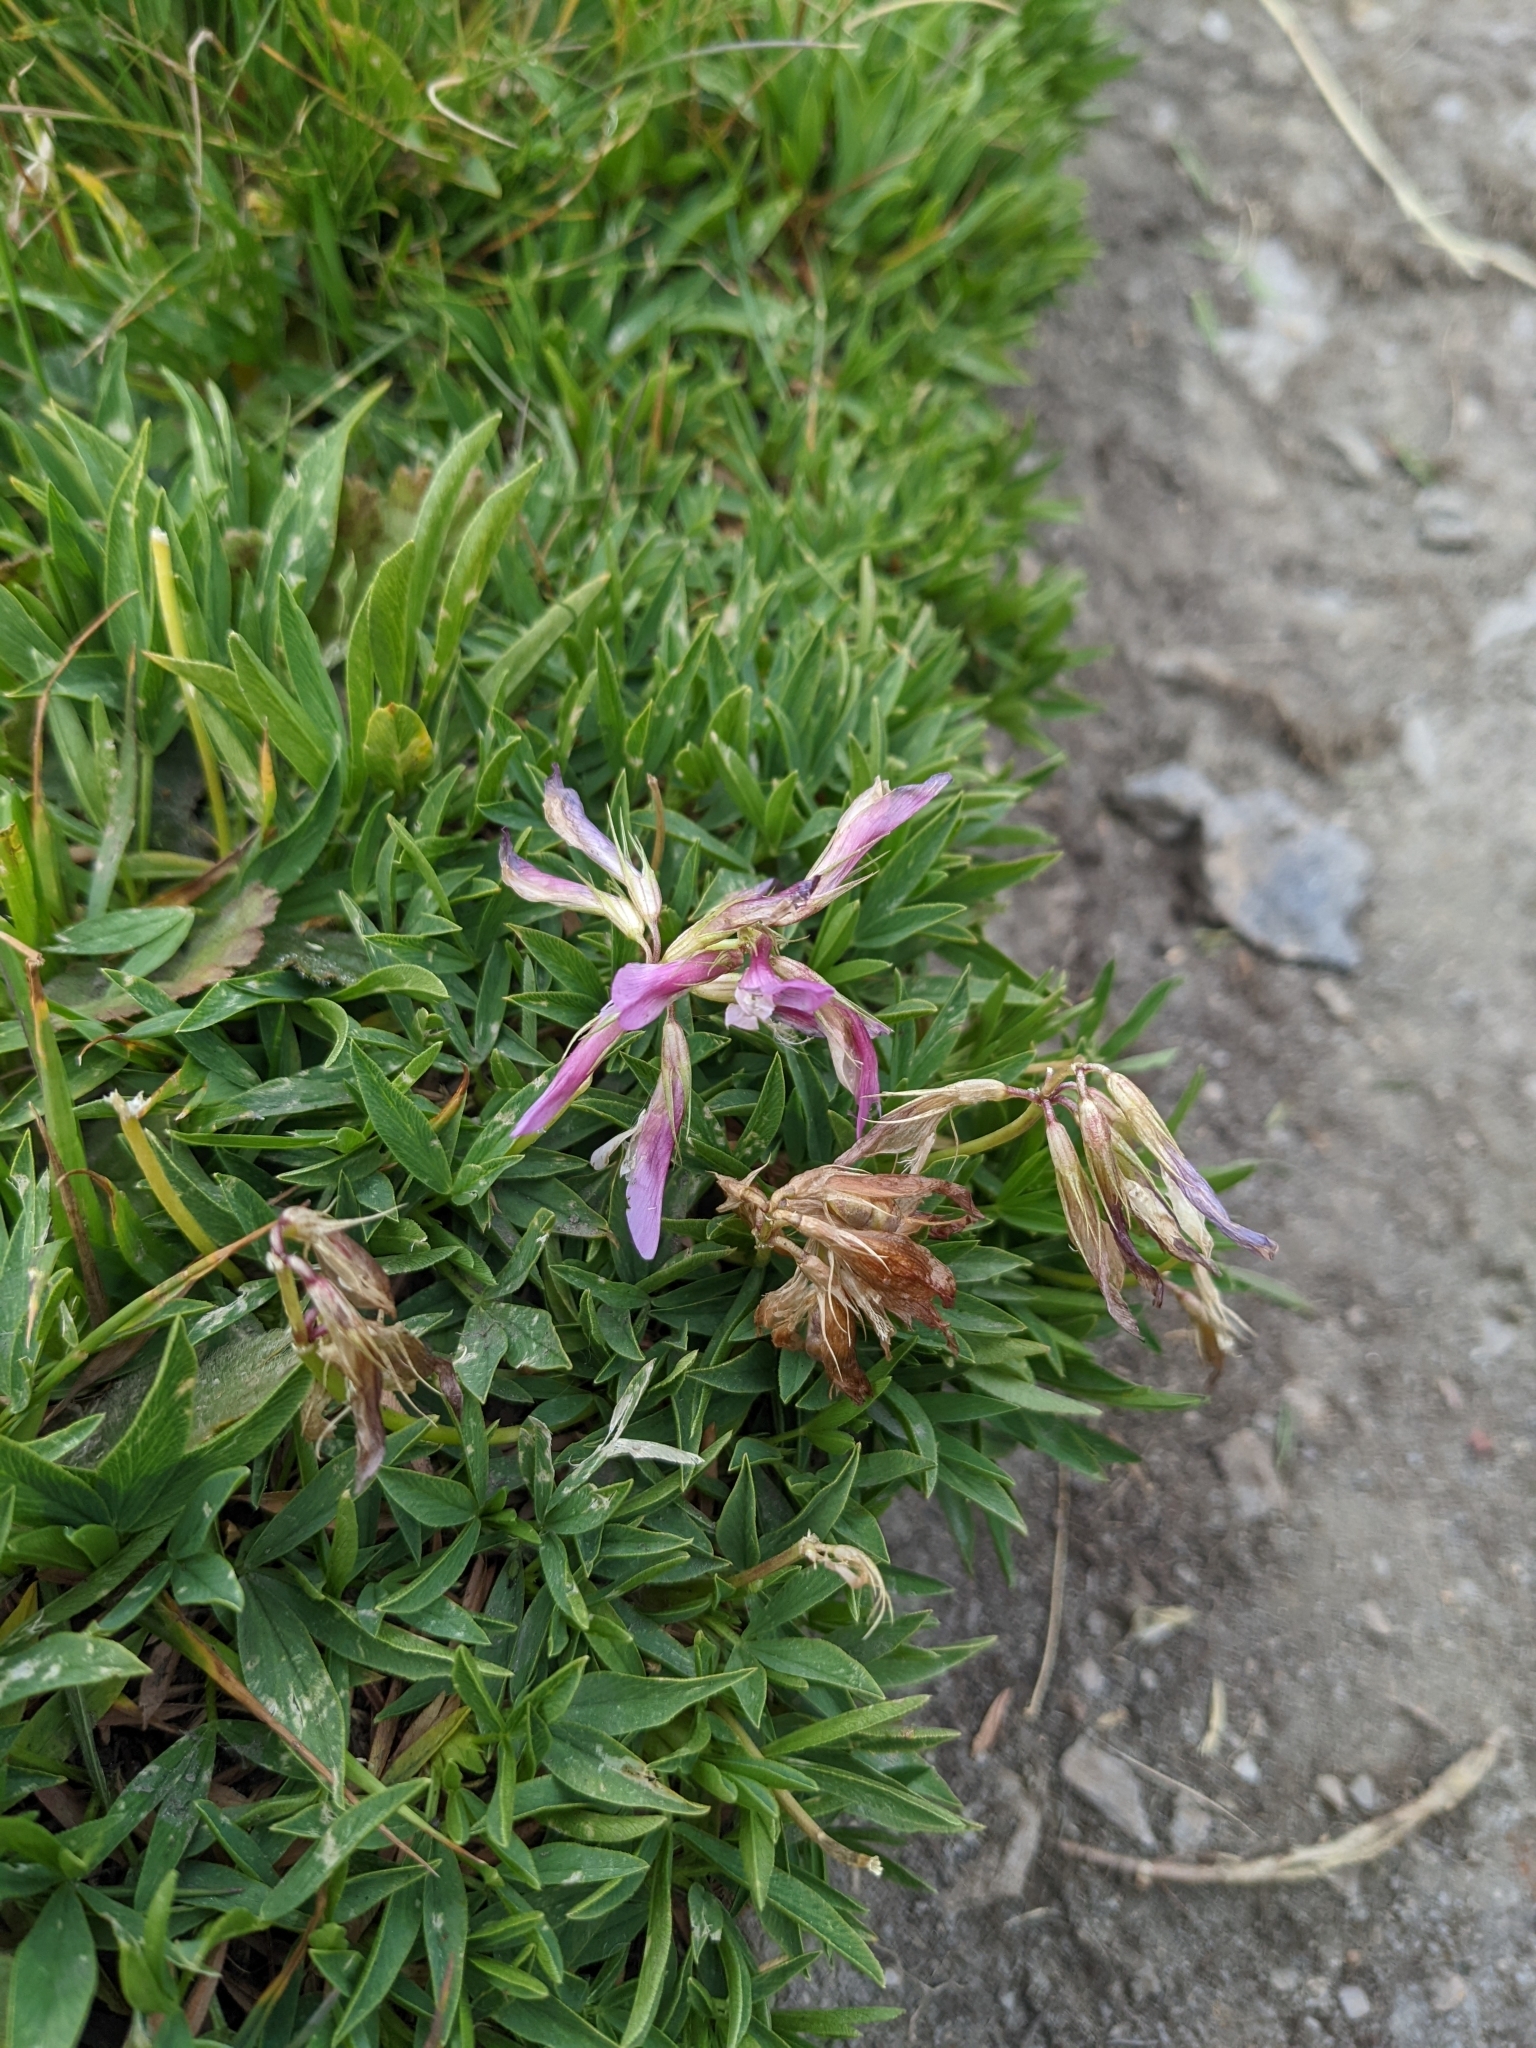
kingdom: Plantae
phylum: Tracheophyta
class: Magnoliopsida
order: Fabales
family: Fabaceae
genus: Trifolium
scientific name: Trifolium alpinum
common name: Alpine clover
